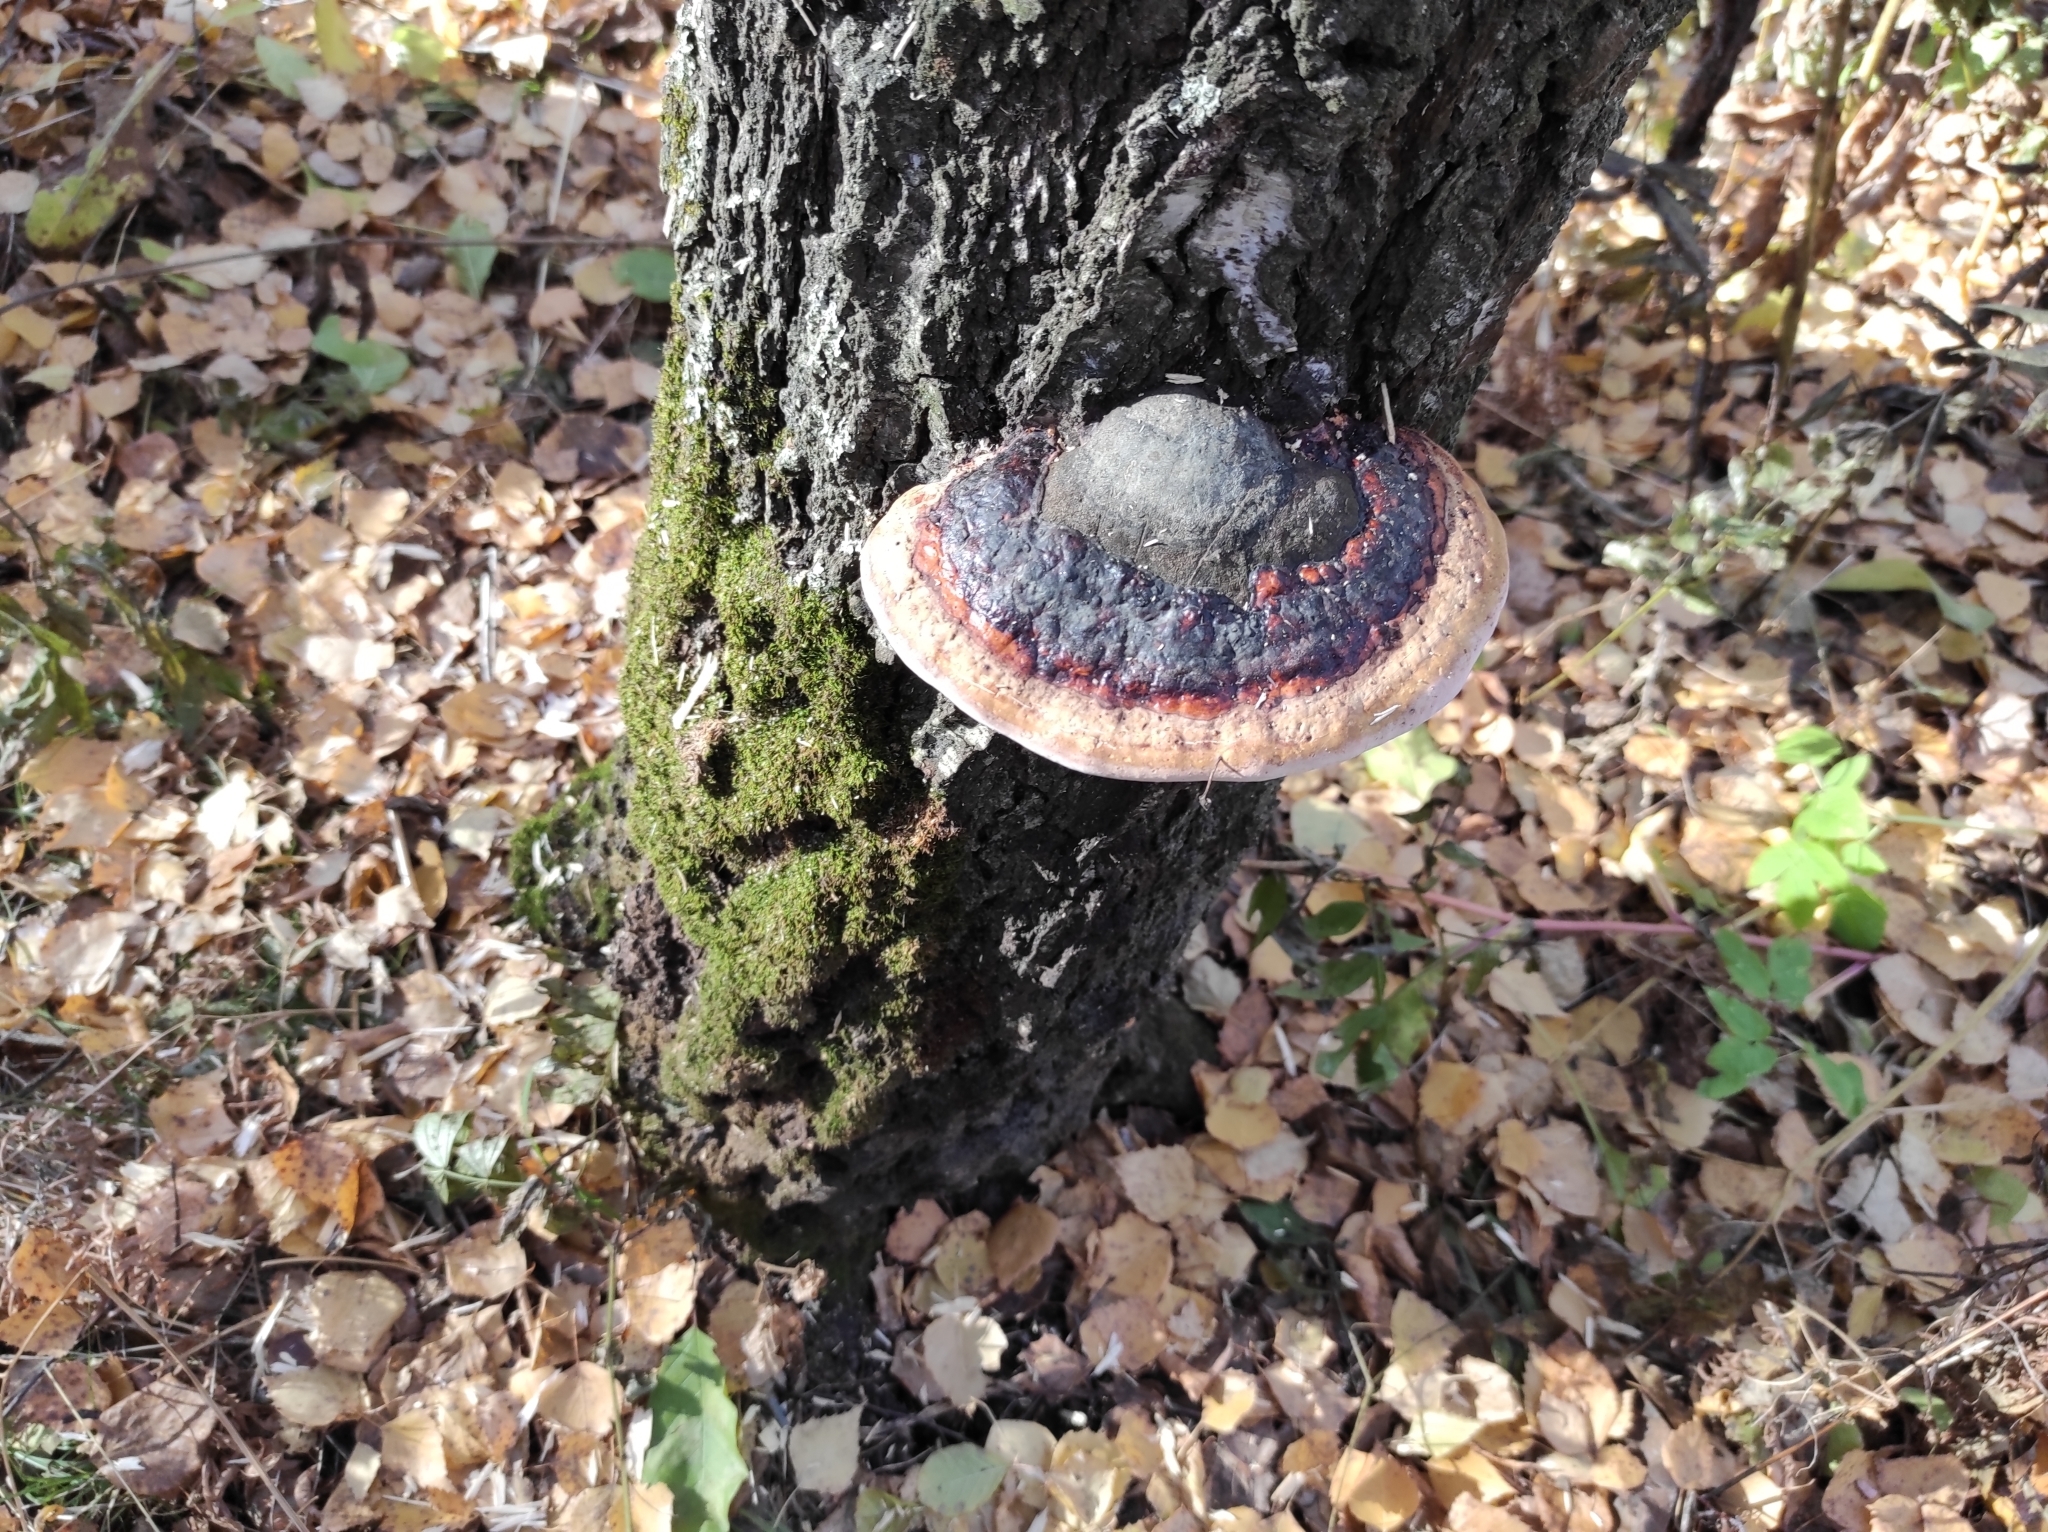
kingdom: Fungi
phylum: Basidiomycota
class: Agaricomycetes
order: Polyporales
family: Fomitopsidaceae
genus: Fomitopsis
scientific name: Fomitopsis pinicola
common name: Red-belted bracket
